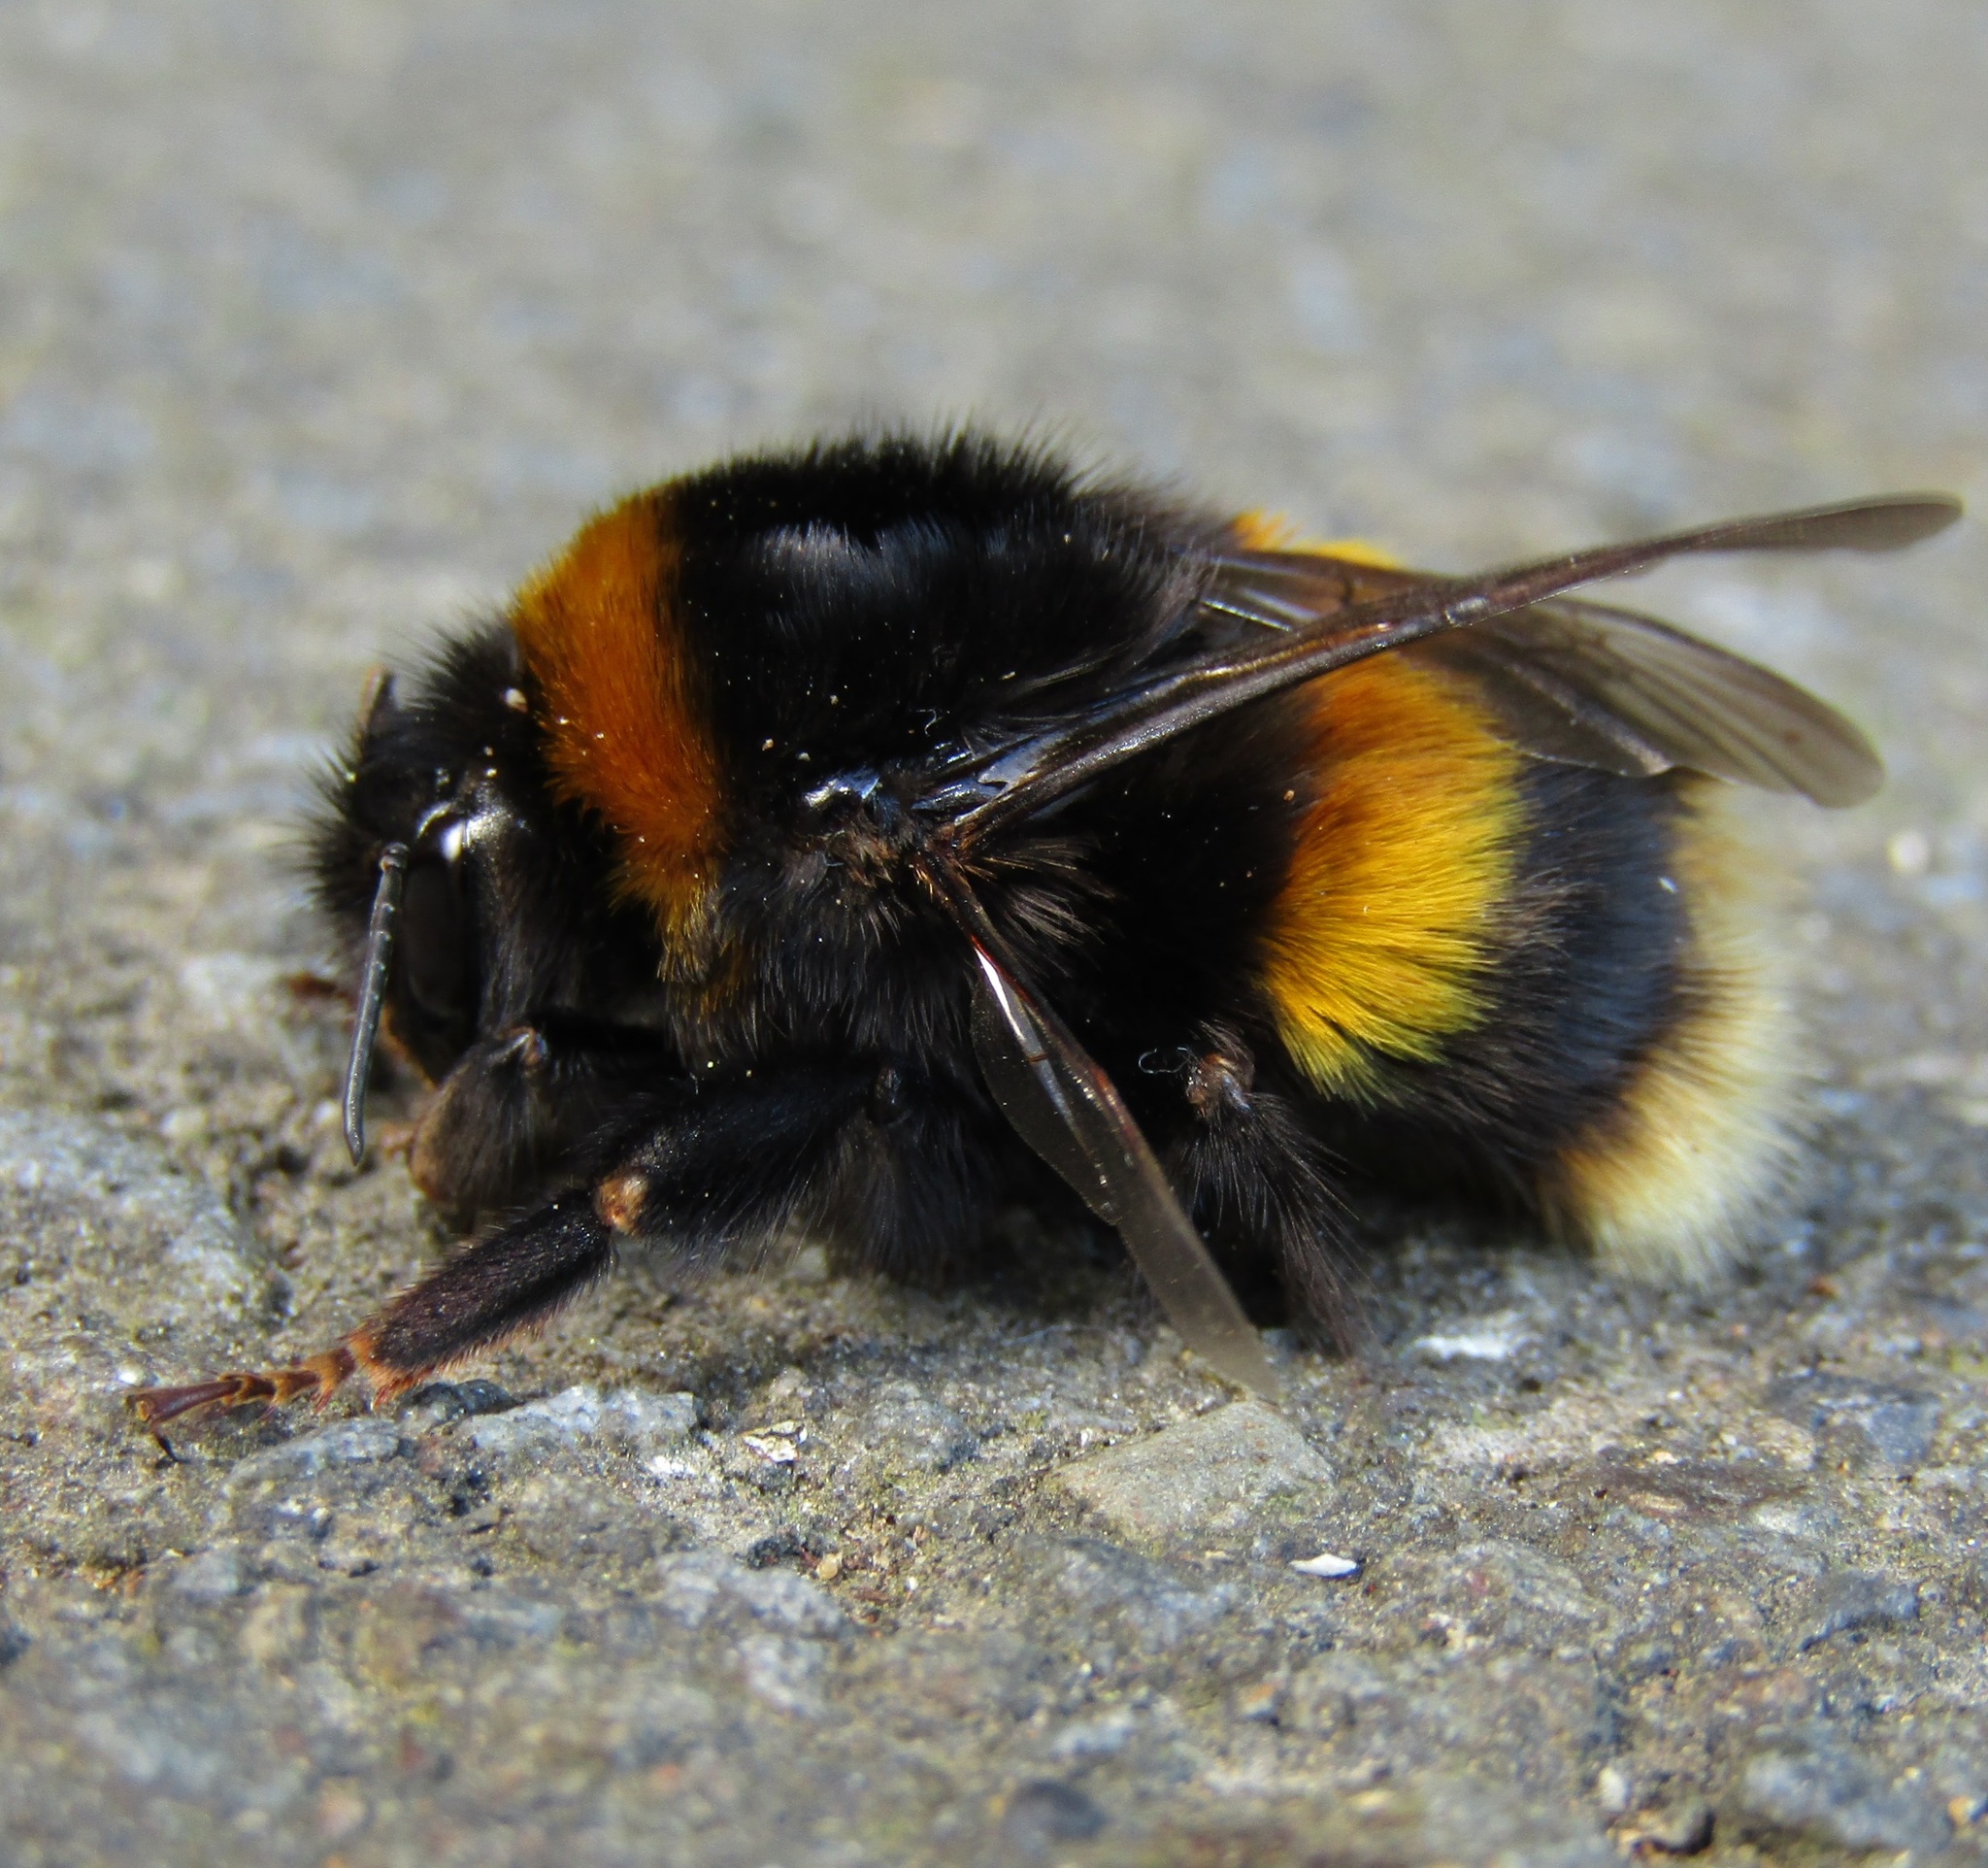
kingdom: Animalia
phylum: Arthropoda
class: Insecta
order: Hymenoptera
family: Apidae
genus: Bombus
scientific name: Bombus terrestris
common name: Buff-tailed bumblebee
